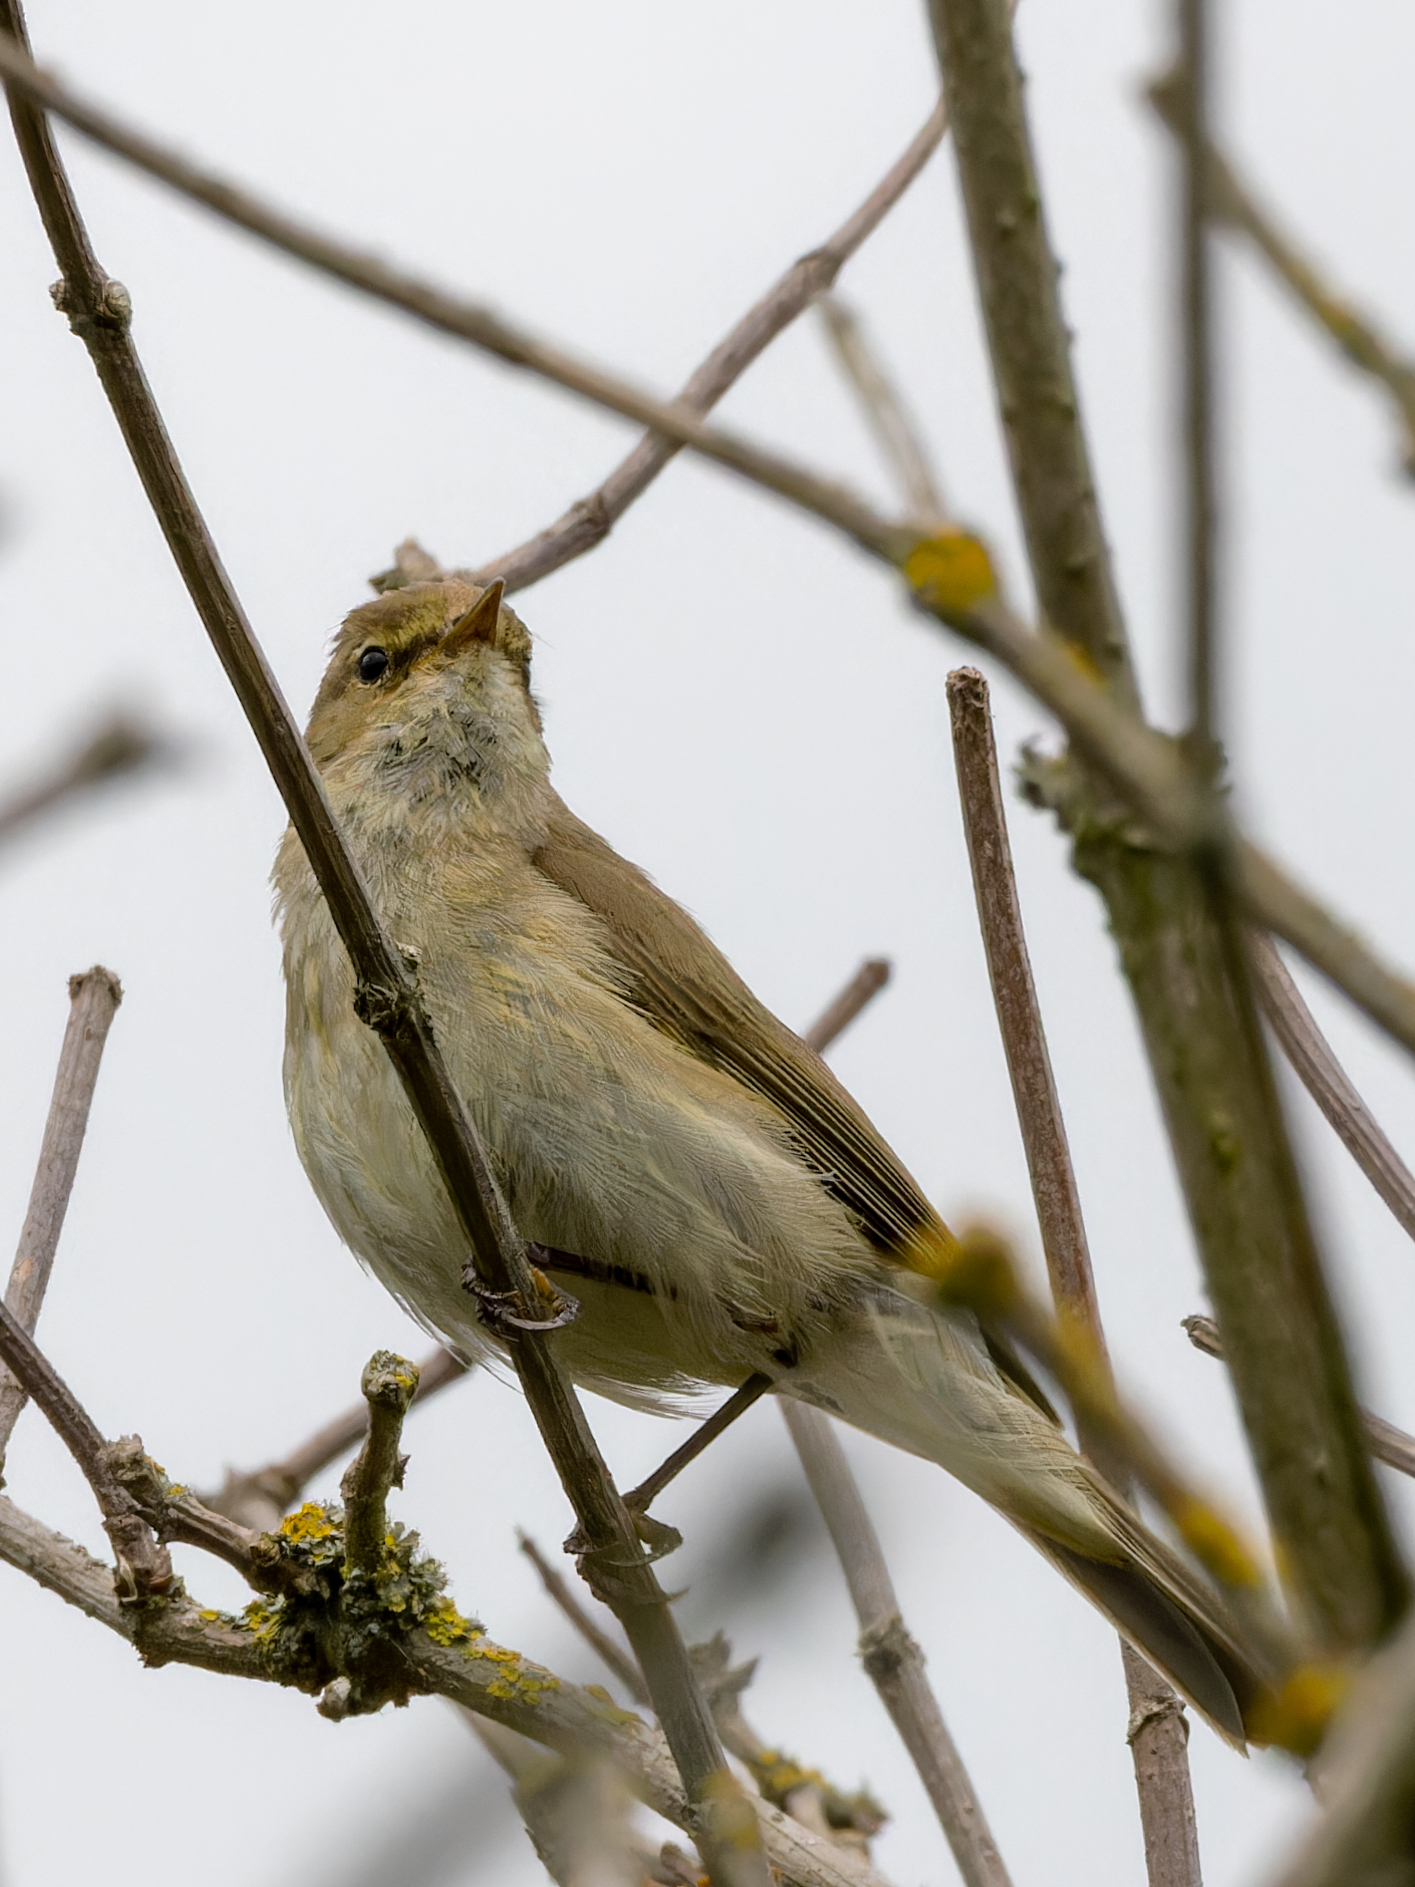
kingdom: Animalia
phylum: Chordata
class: Aves
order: Passeriformes
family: Phylloscopidae
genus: Phylloscopus
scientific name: Phylloscopus collybita
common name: Common chiffchaff
